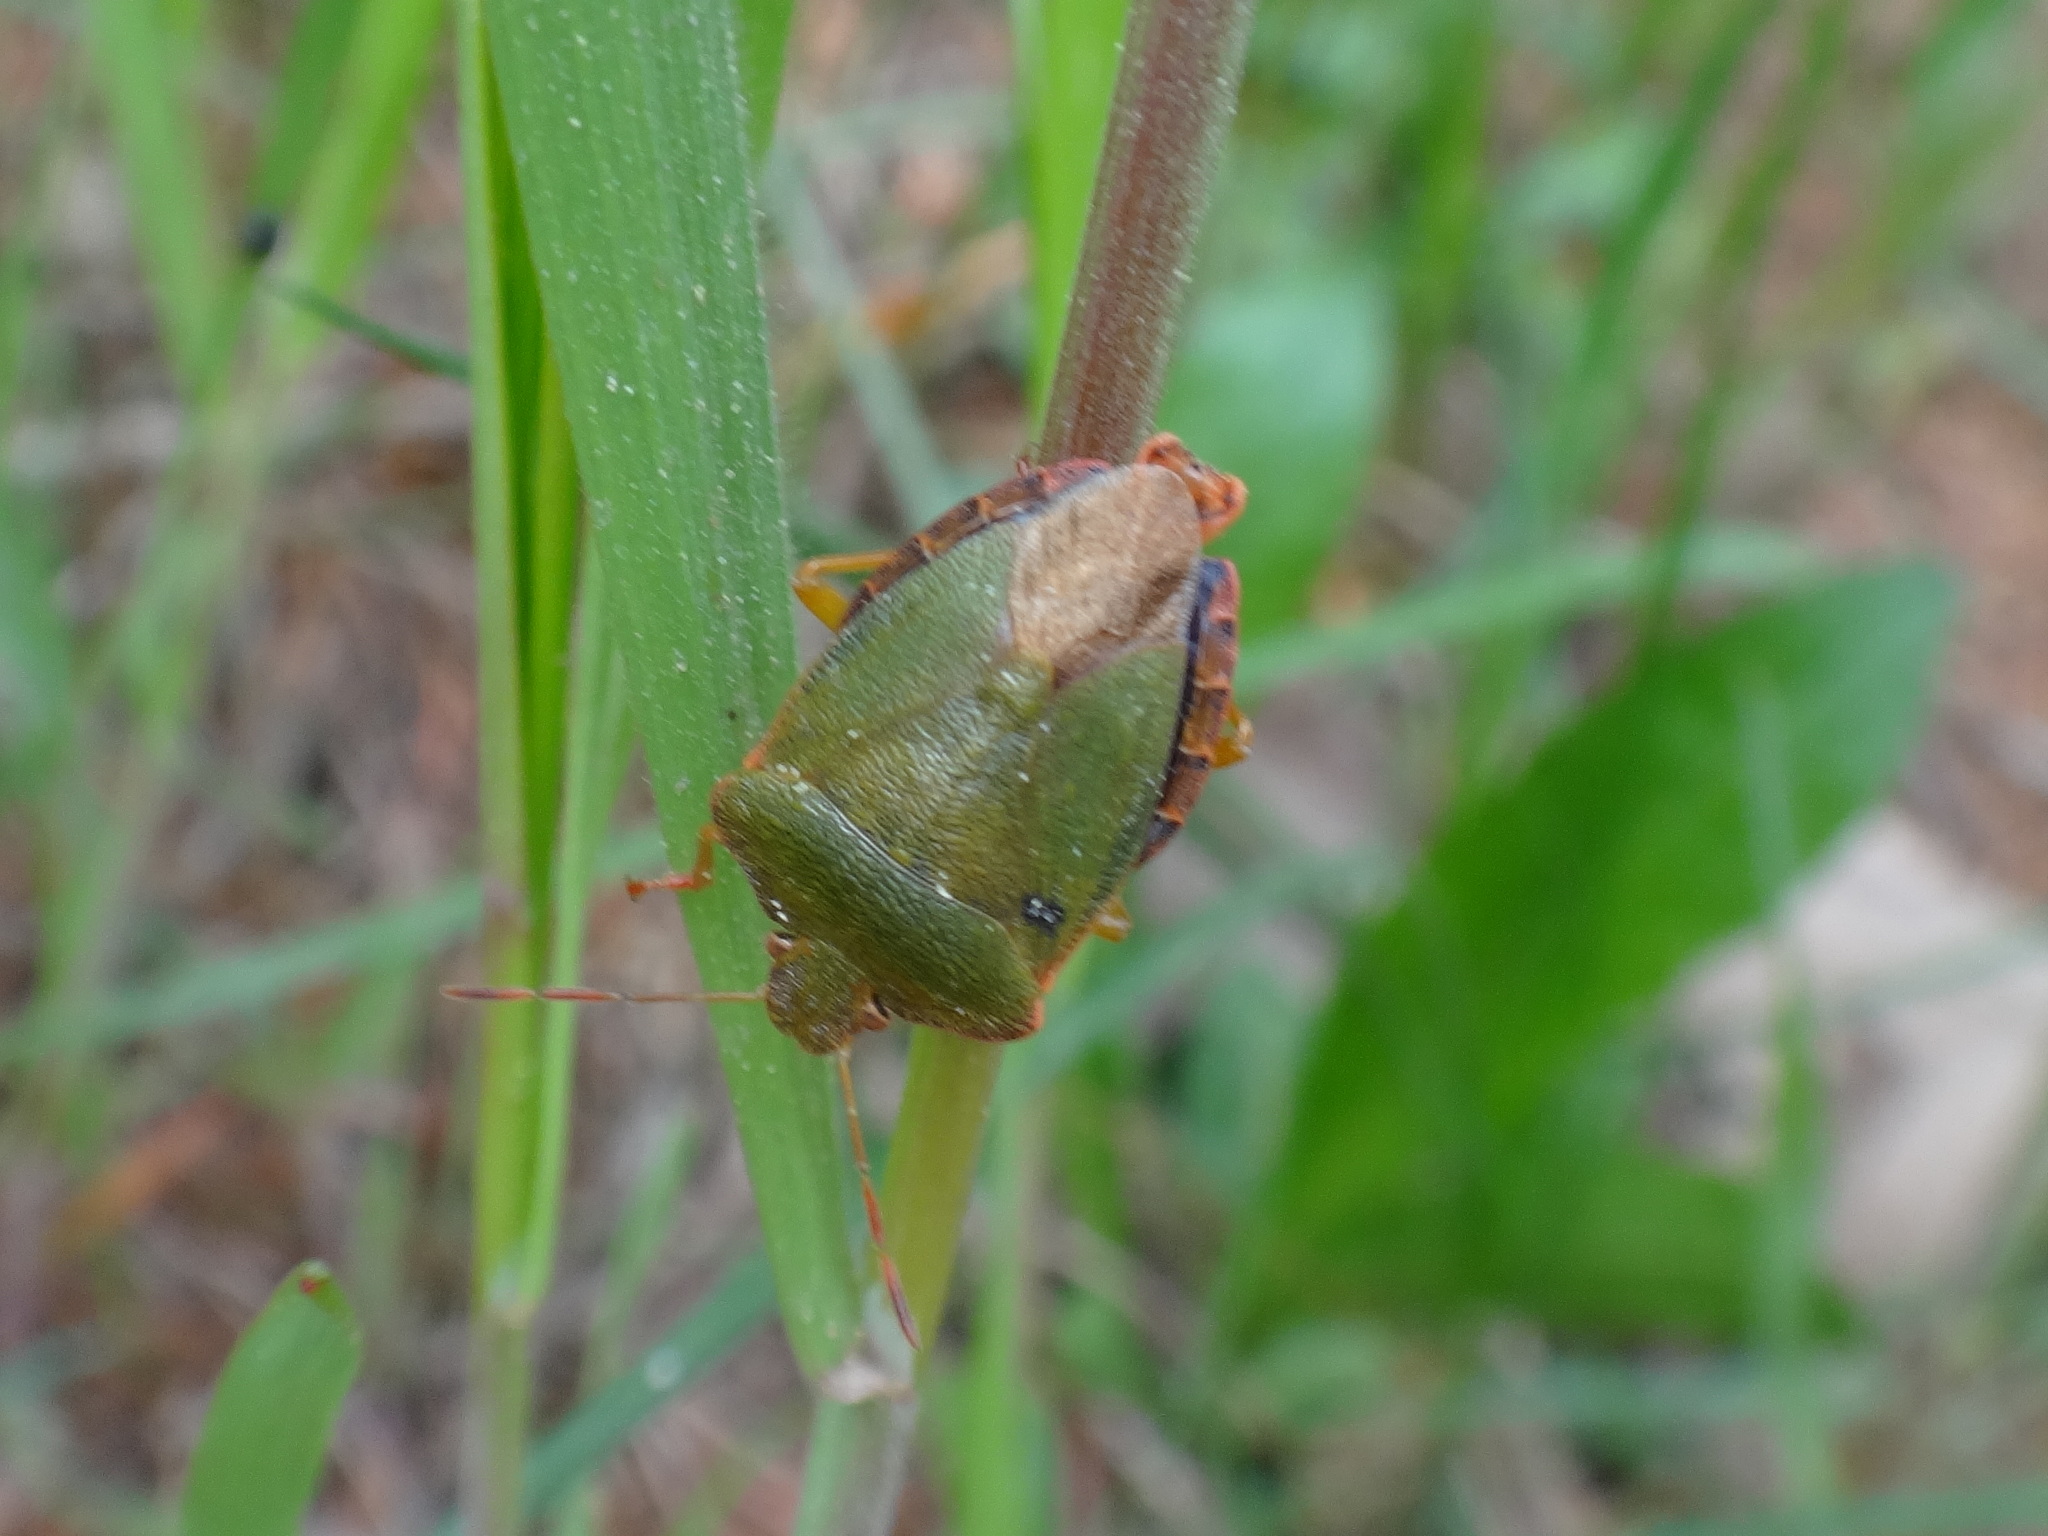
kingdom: Animalia
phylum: Arthropoda
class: Insecta
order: Hemiptera
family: Pentatomidae
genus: Palomena
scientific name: Palomena prasina
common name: Green shieldbug
